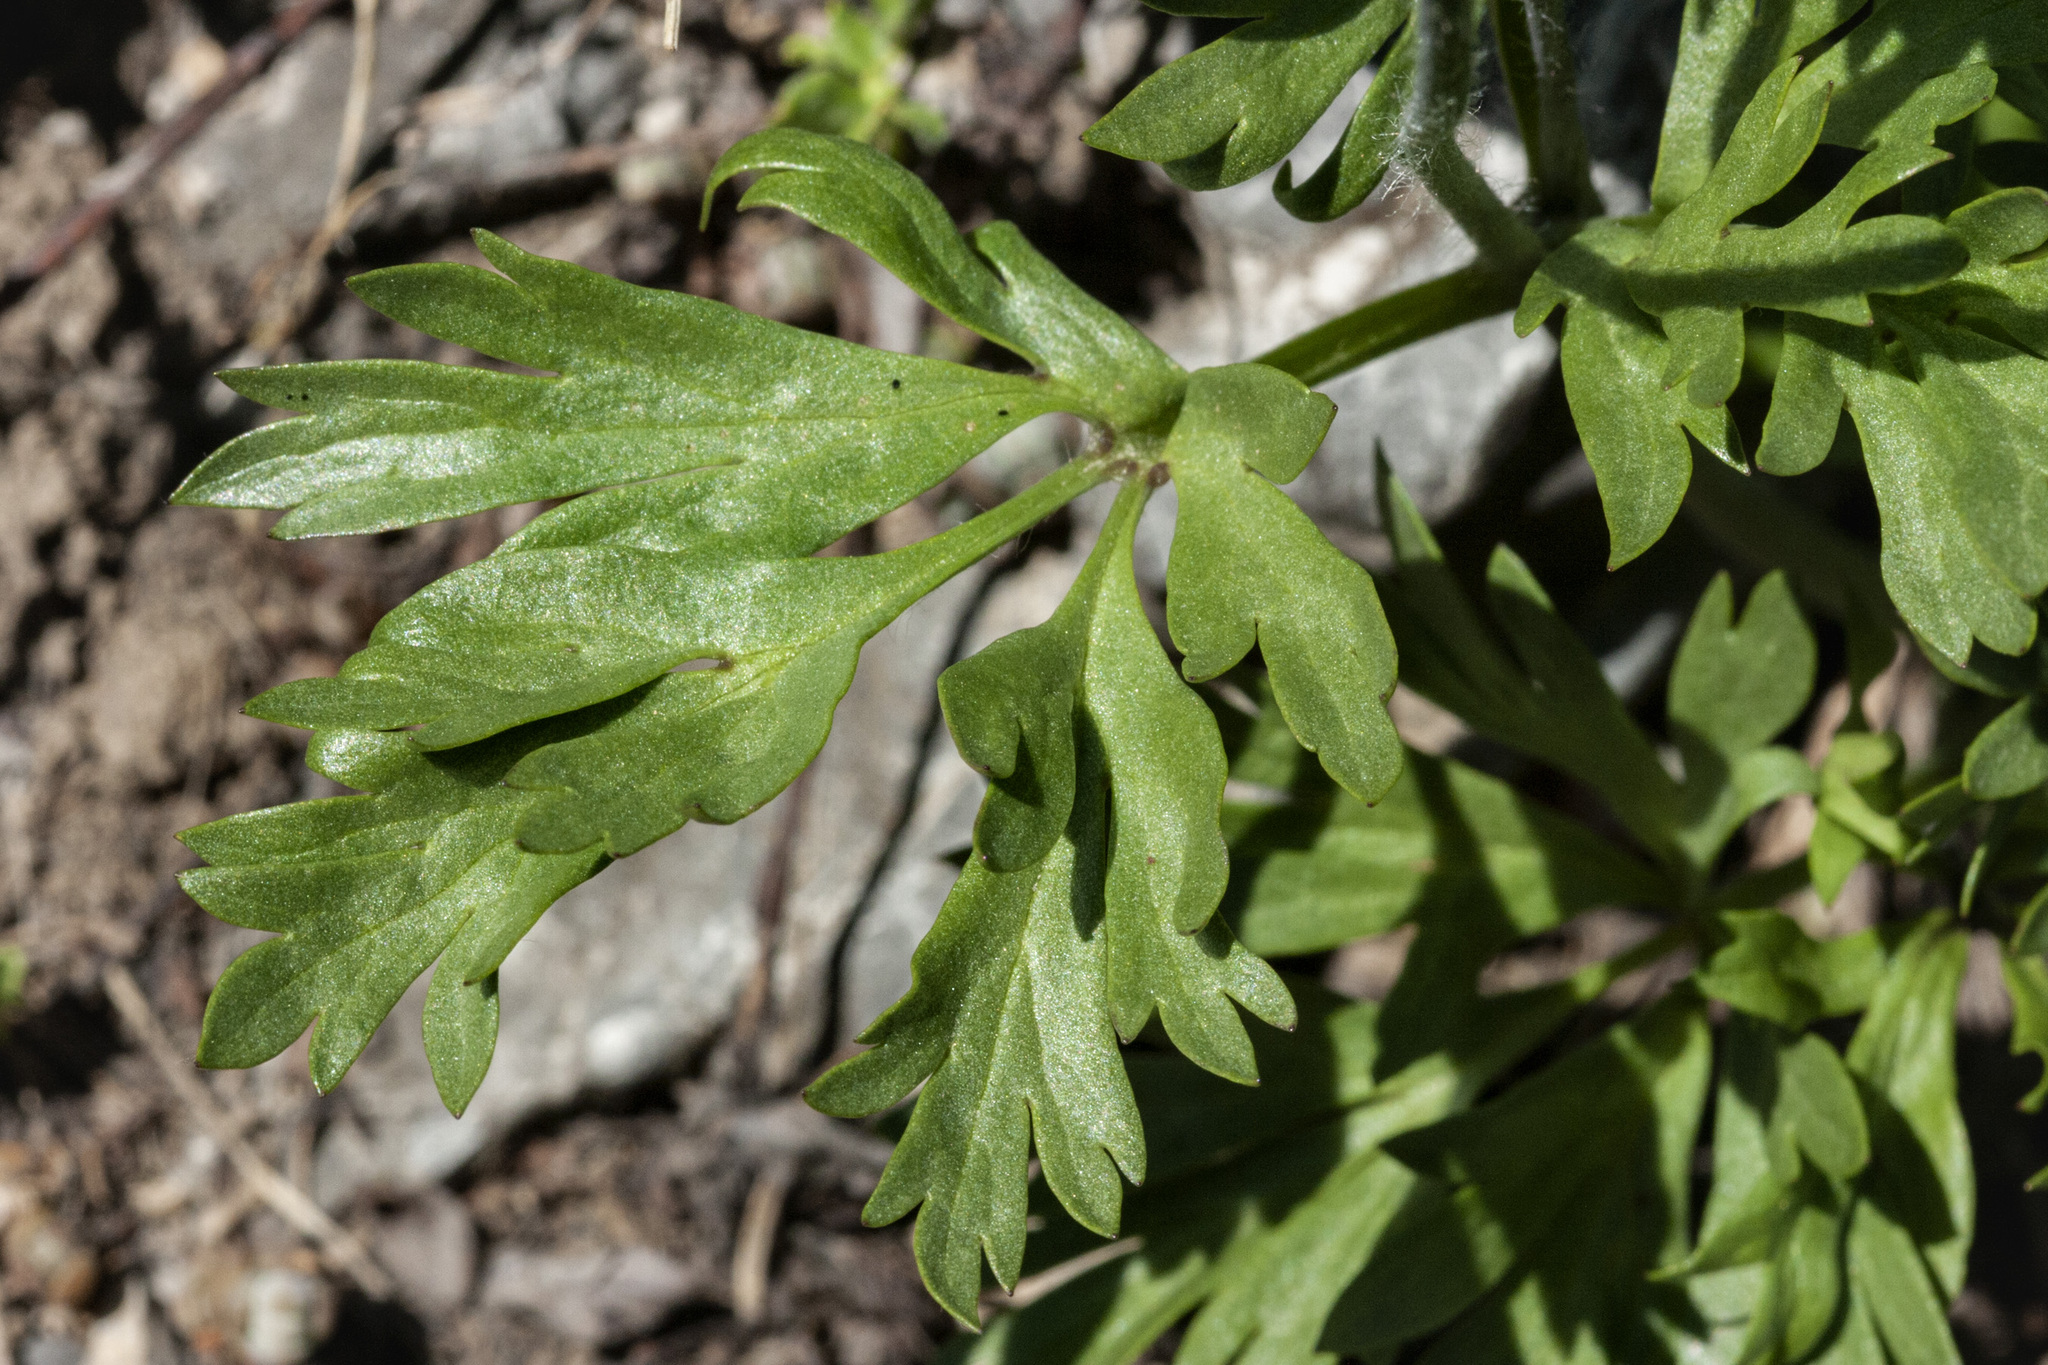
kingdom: Plantae
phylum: Tracheophyta
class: Magnoliopsida
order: Ranunculales
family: Ranunculaceae
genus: Anemone
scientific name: Anemone multifida
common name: Bird's-foot anemone
